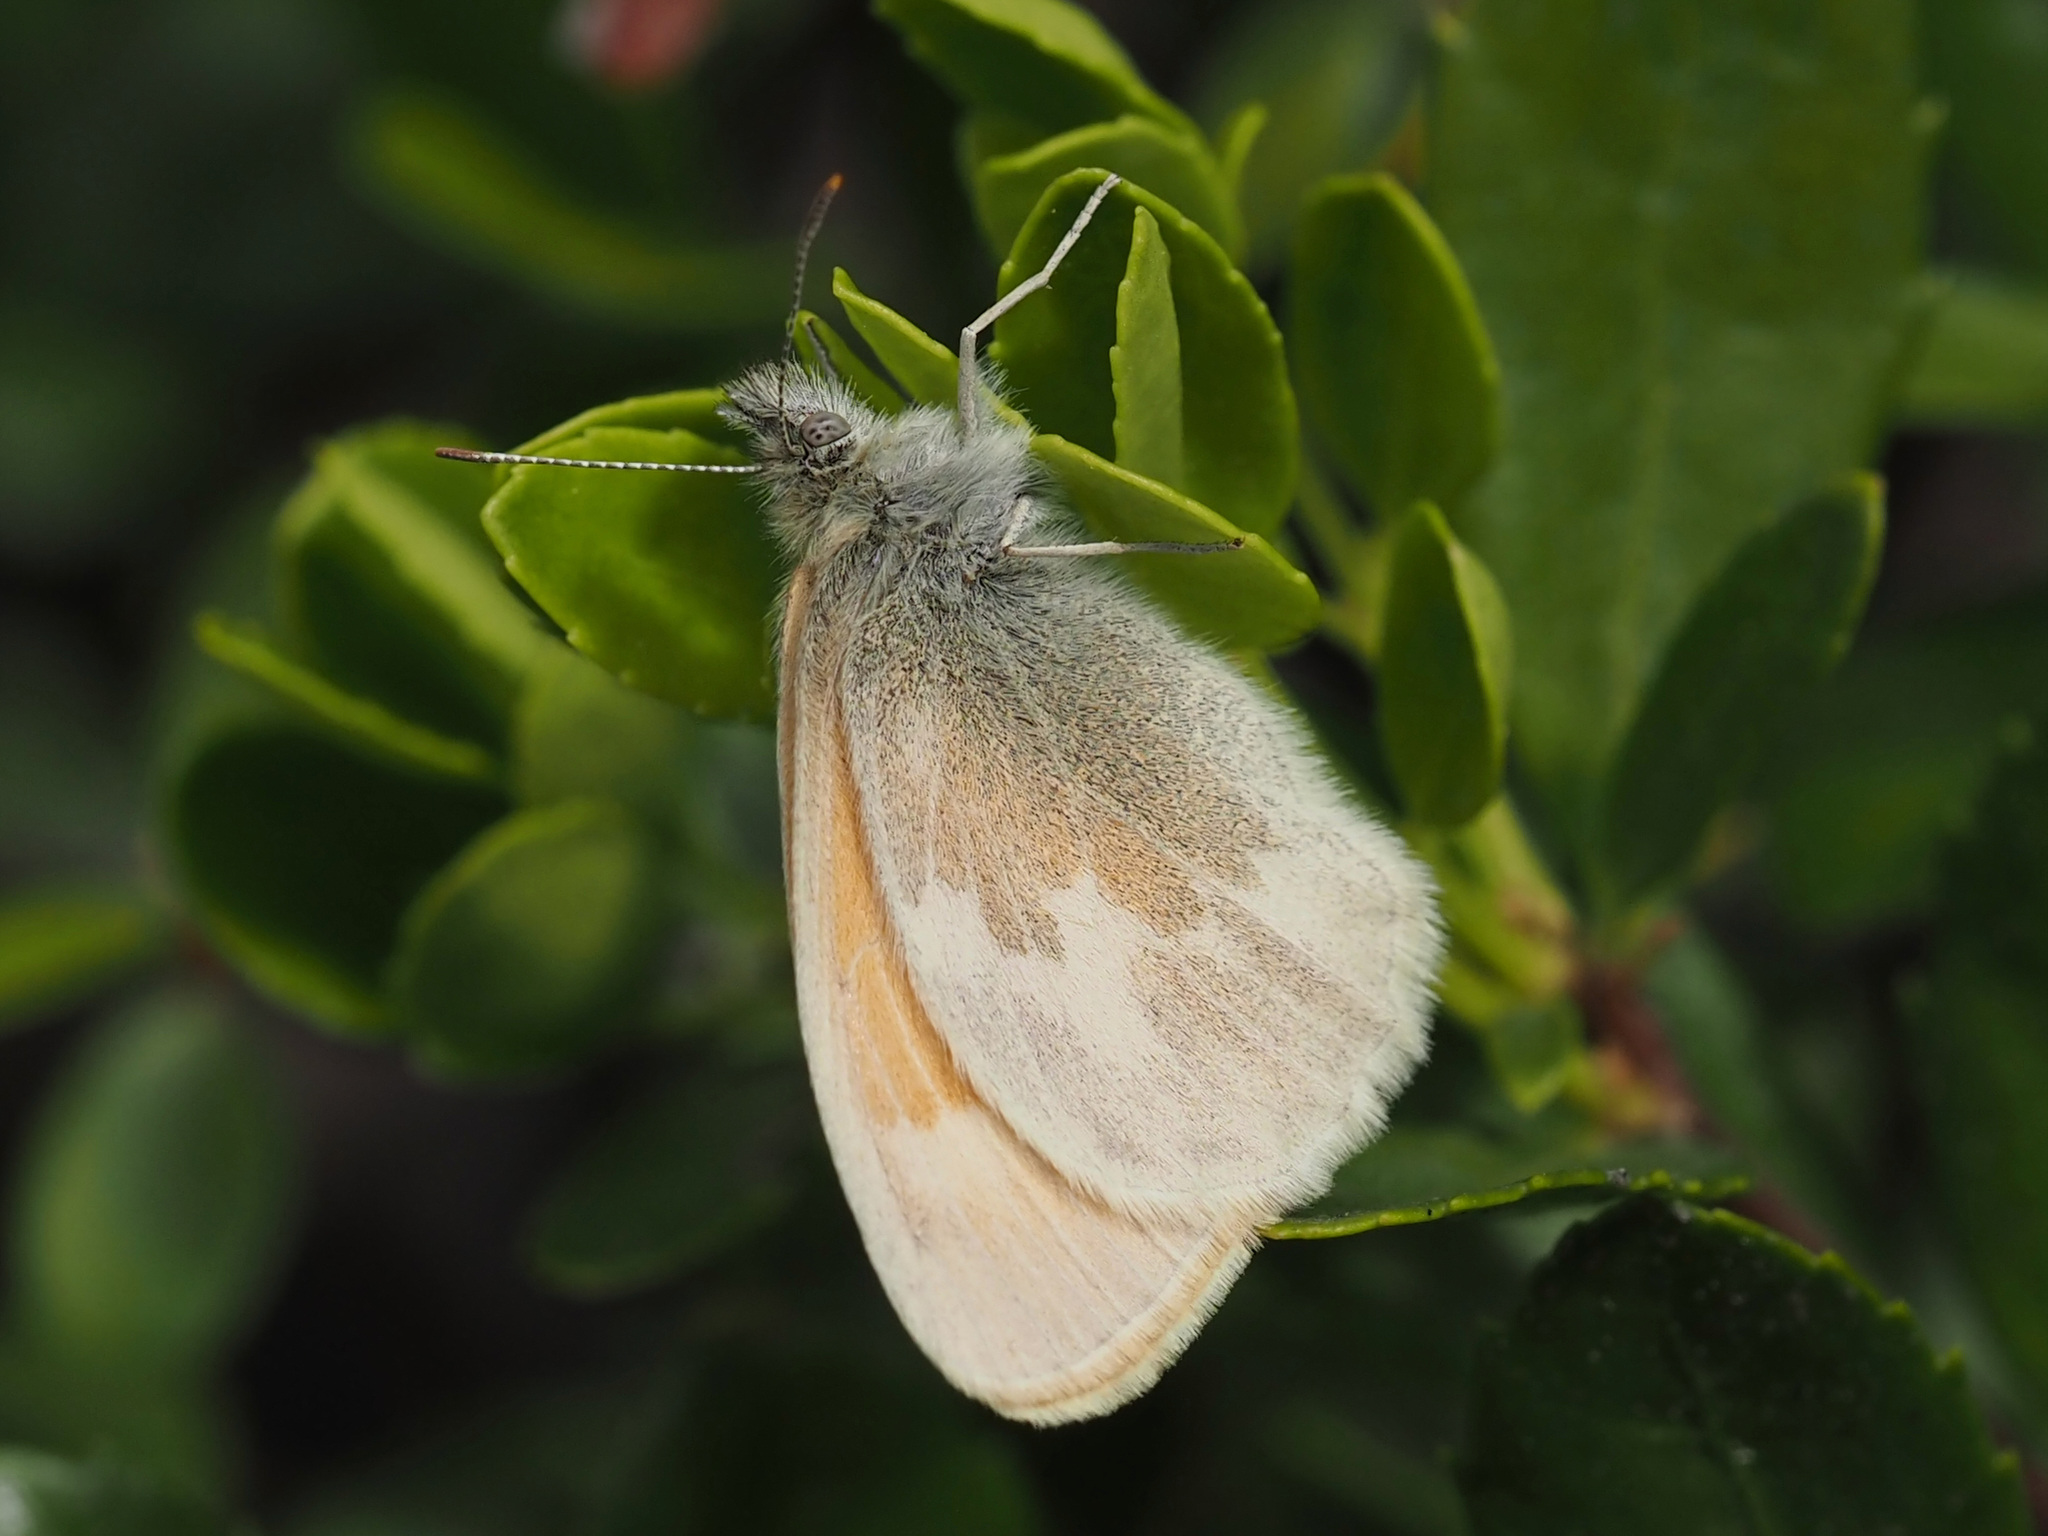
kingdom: Animalia
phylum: Arthropoda
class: Insecta
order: Lepidoptera
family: Nymphalidae
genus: Coenonympha
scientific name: Coenonympha california
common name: Common ringlet
